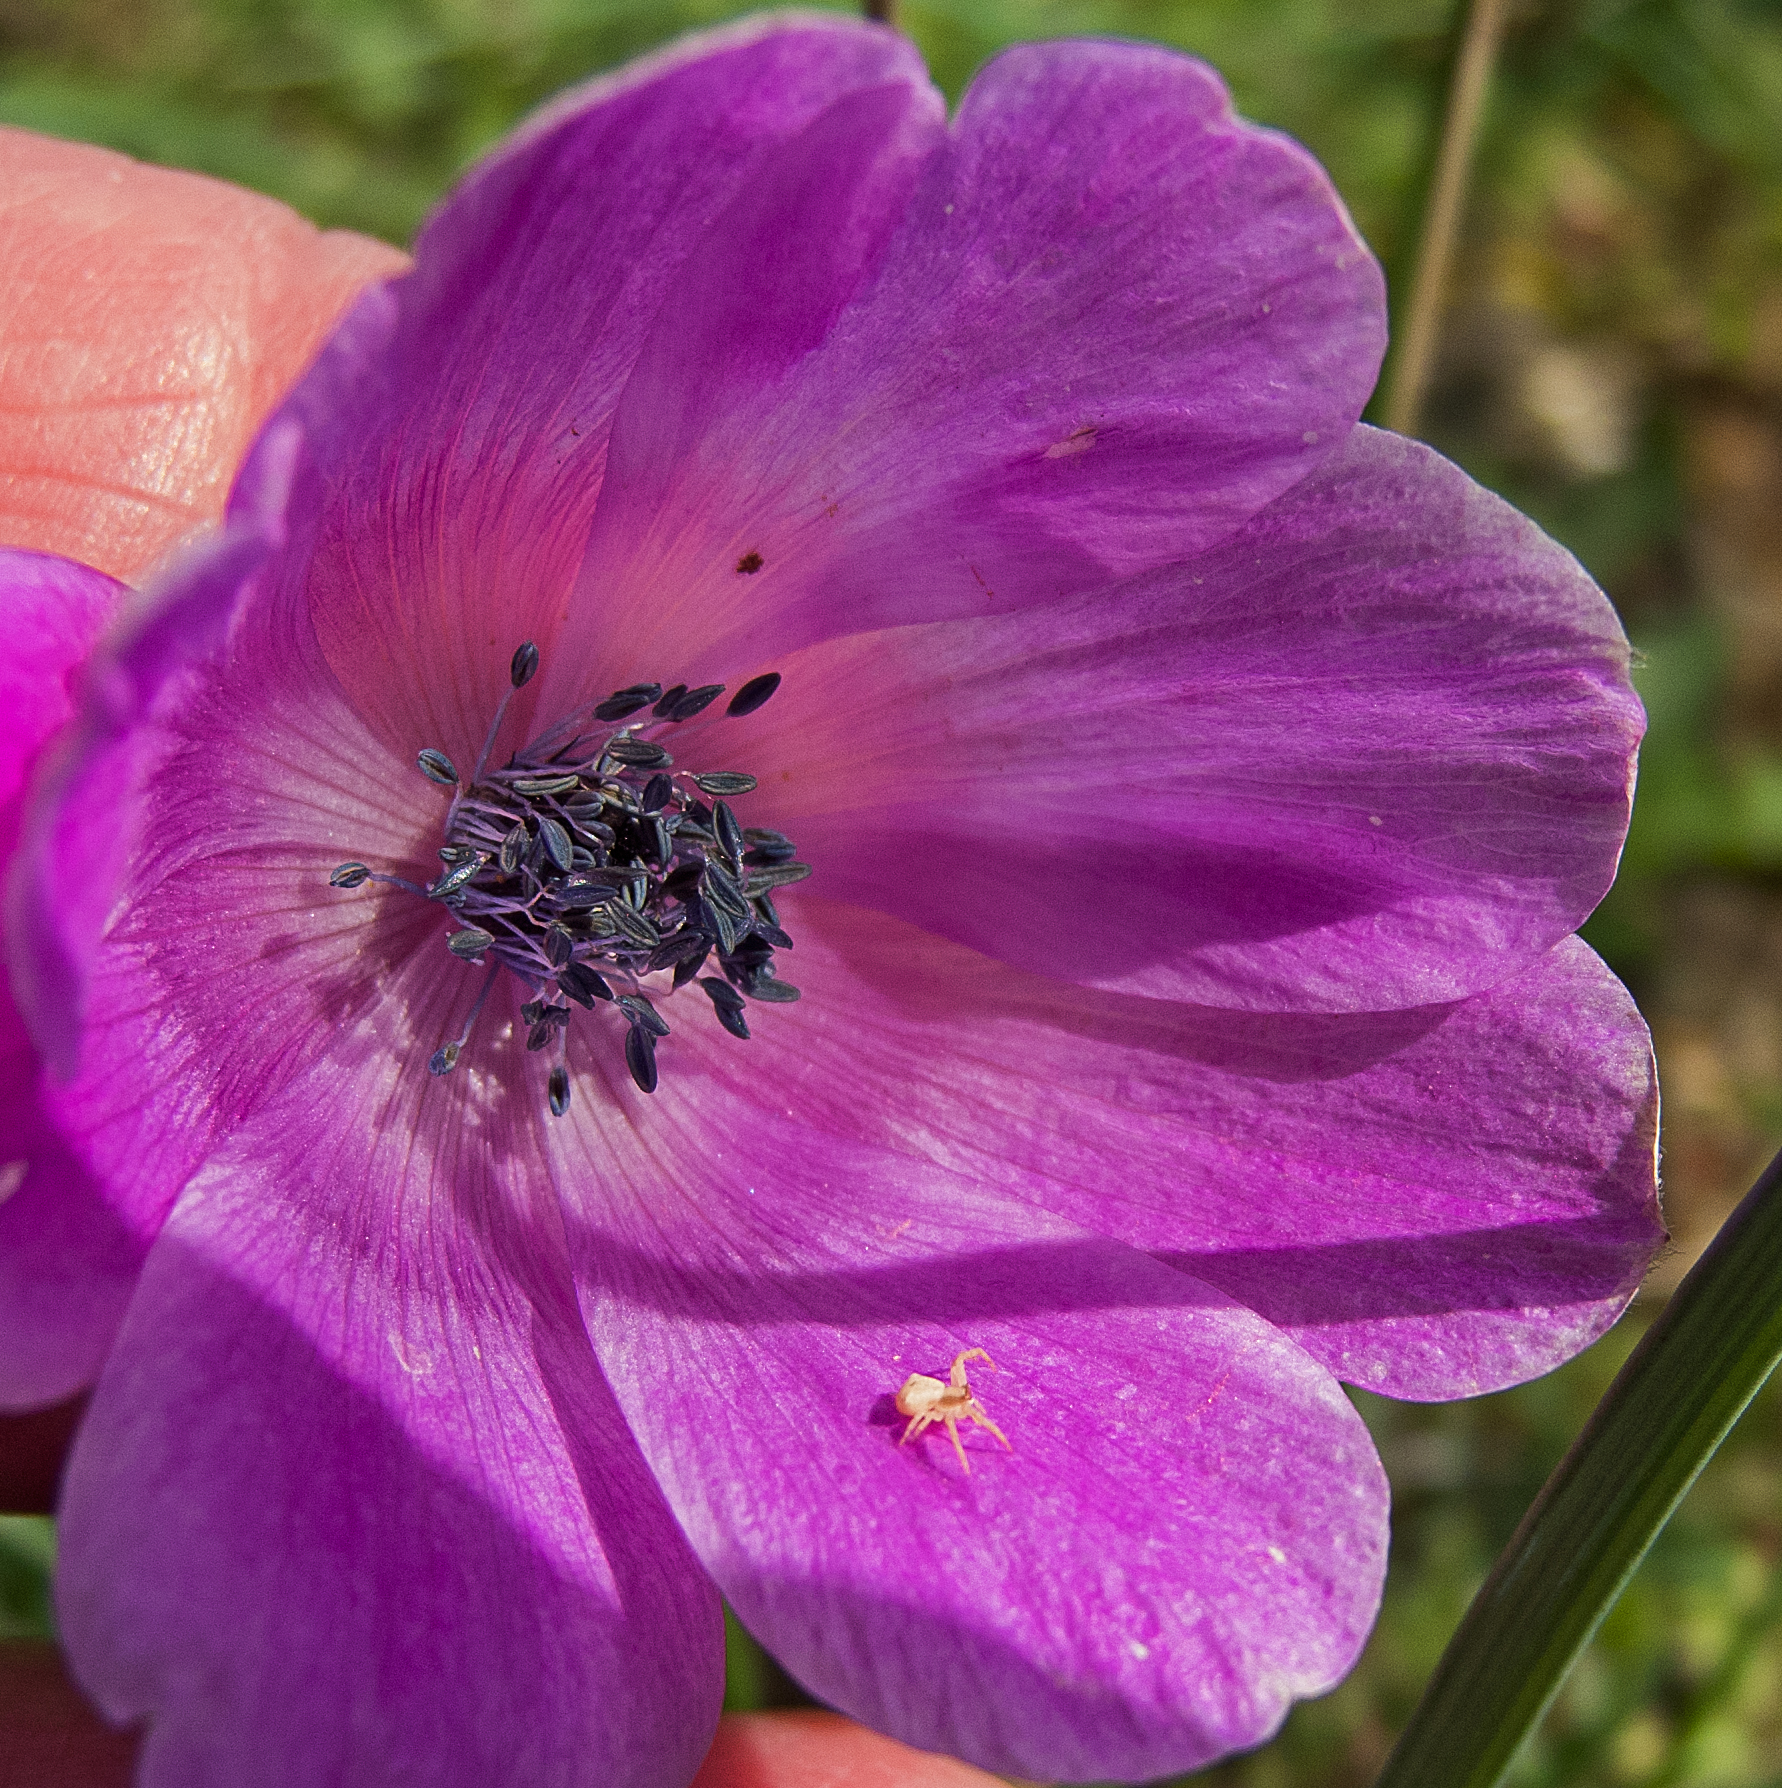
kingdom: Animalia
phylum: Arthropoda
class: Arachnida
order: Araneae
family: Thomisidae
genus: Thomisus
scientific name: Thomisus onustus
